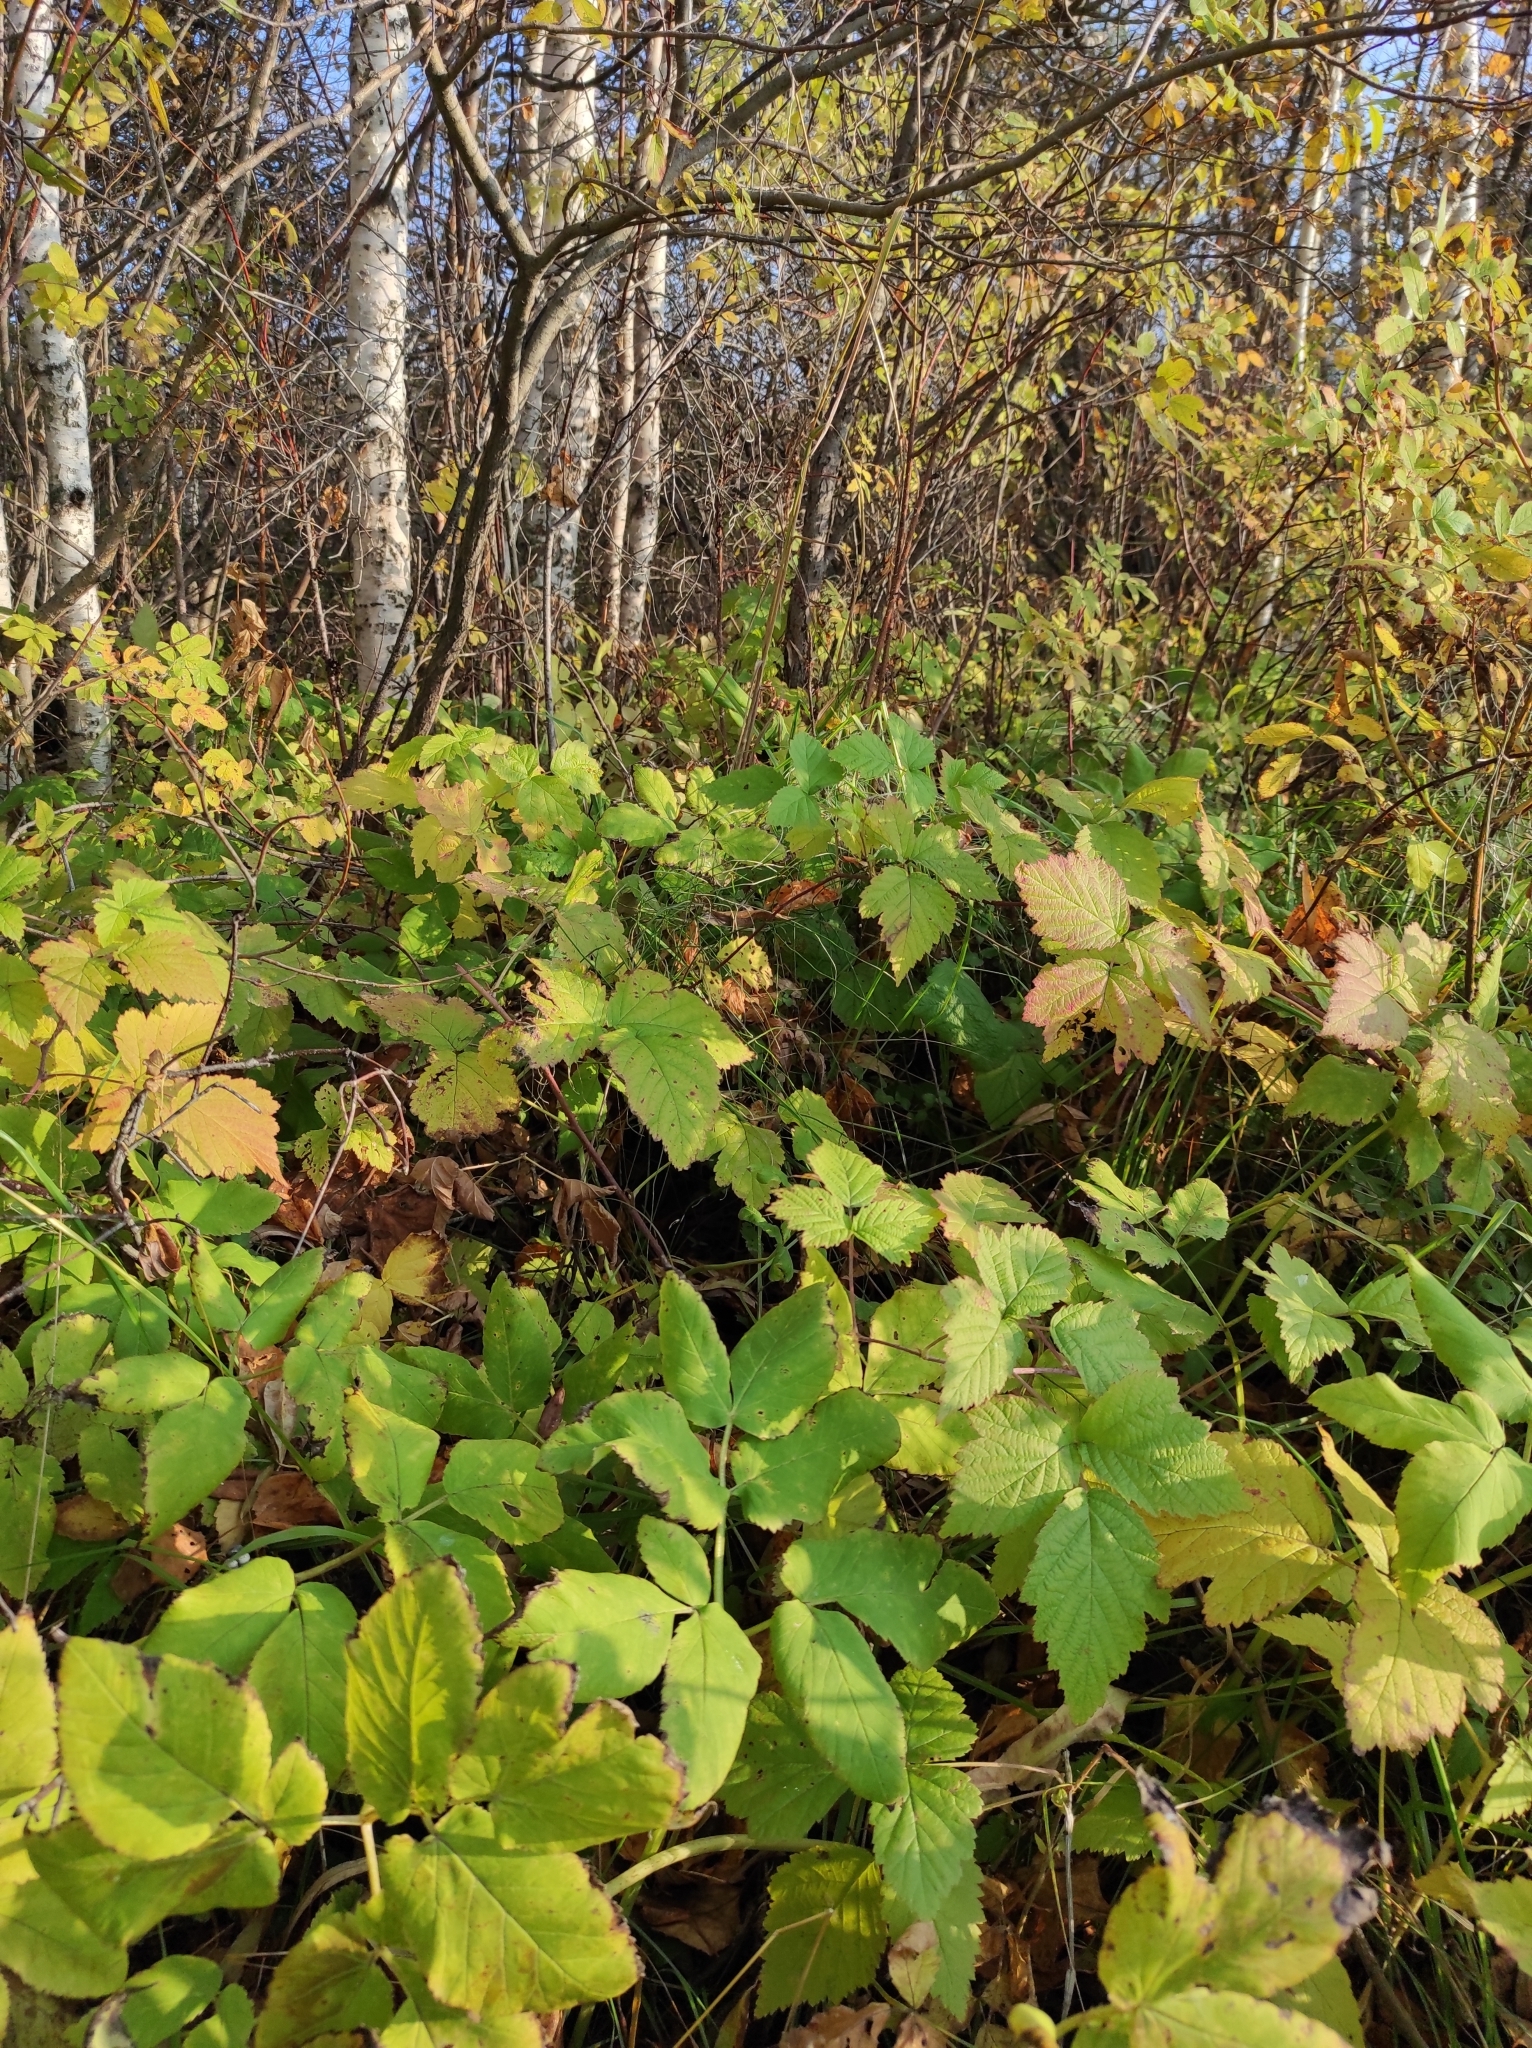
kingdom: Plantae
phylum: Tracheophyta
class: Magnoliopsida
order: Rosales
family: Rosaceae
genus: Rubus
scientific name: Rubus caesius
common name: Dewberry
